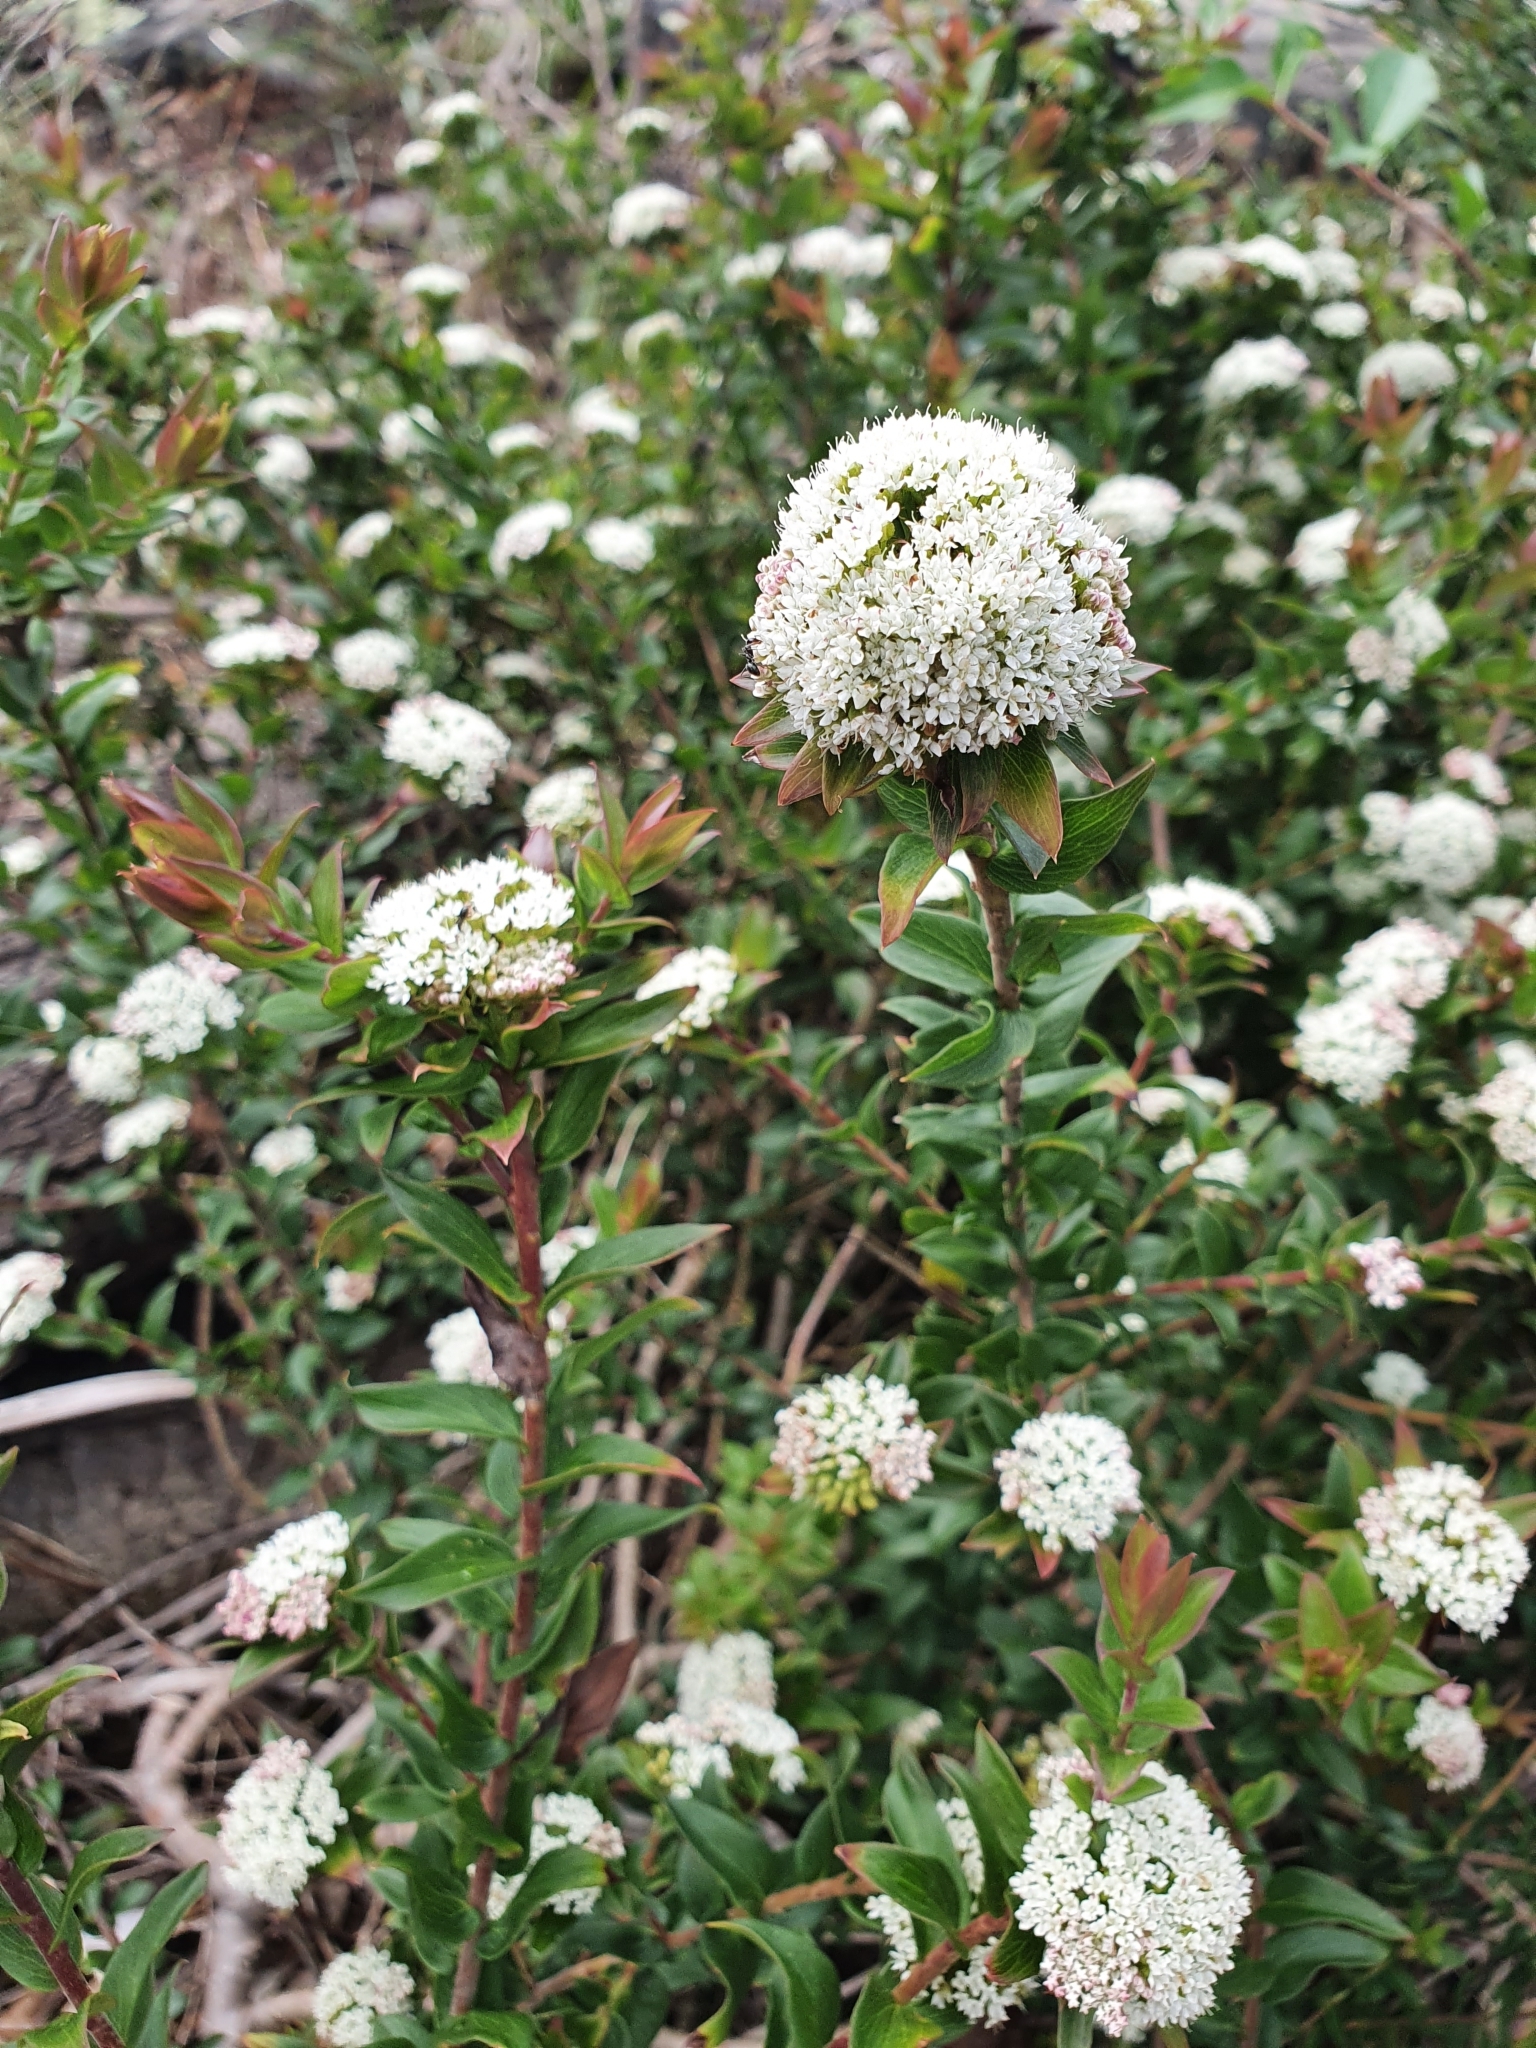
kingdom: Plantae
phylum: Tracheophyta
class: Magnoliopsida
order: Apiales
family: Apiaceae
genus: Platysace
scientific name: Platysace lanceolata
